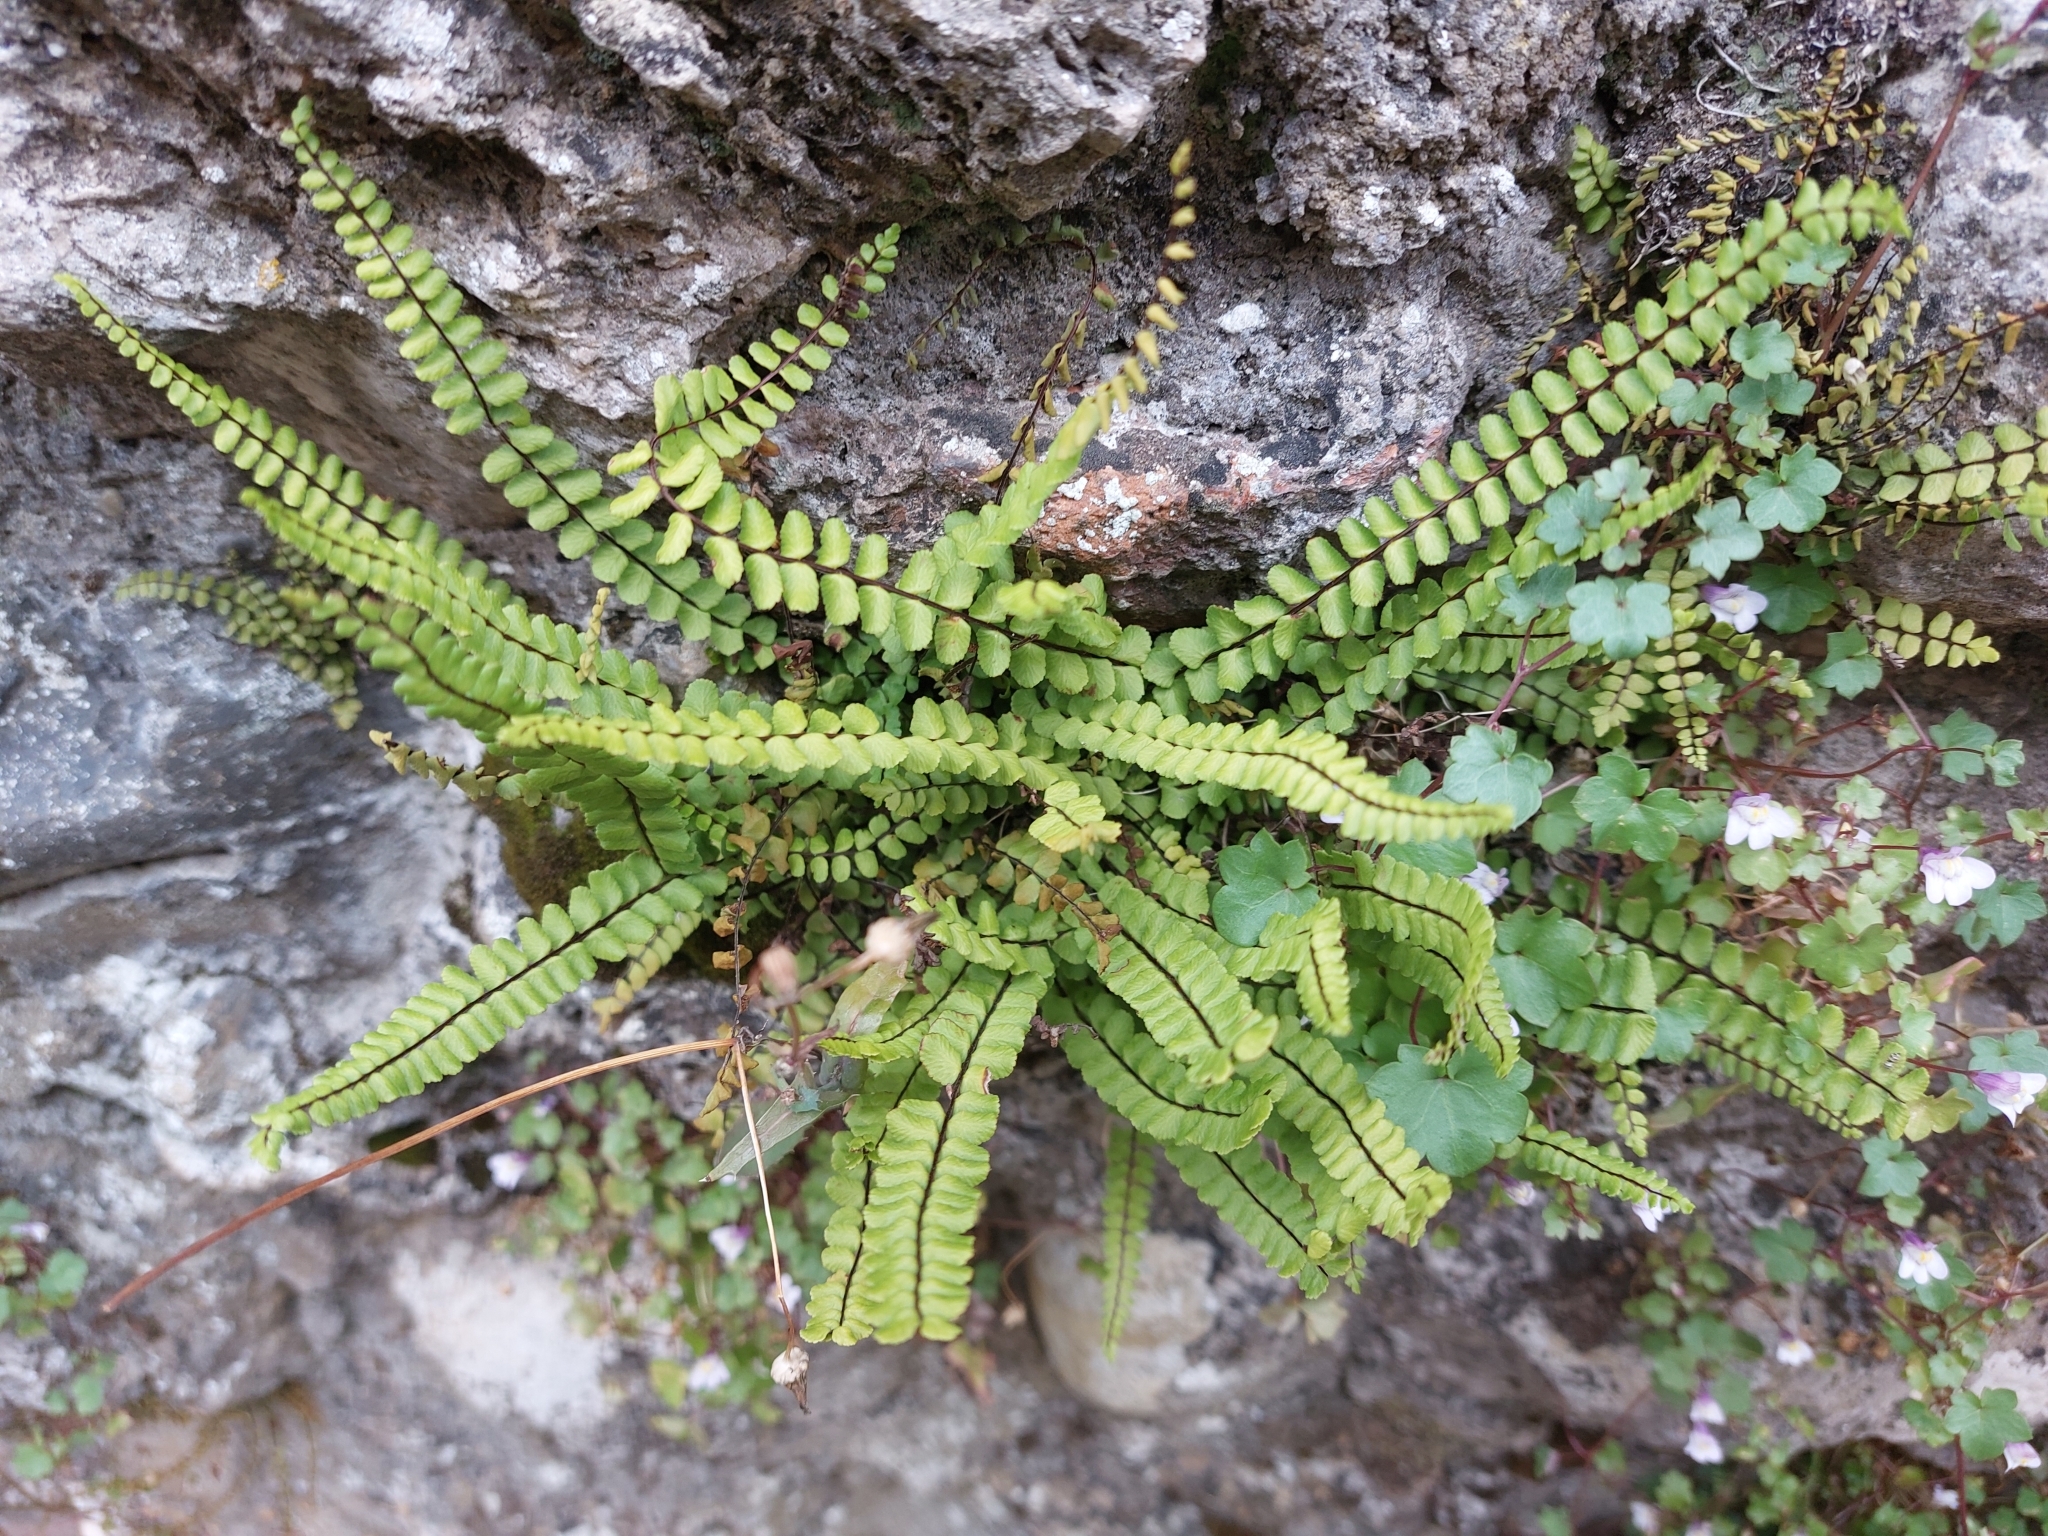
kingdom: Plantae
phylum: Tracheophyta
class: Polypodiopsida
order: Polypodiales
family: Aspleniaceae
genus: Asplenium
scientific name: Asplenium trichomanes
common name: Maidenhair spleenwort
